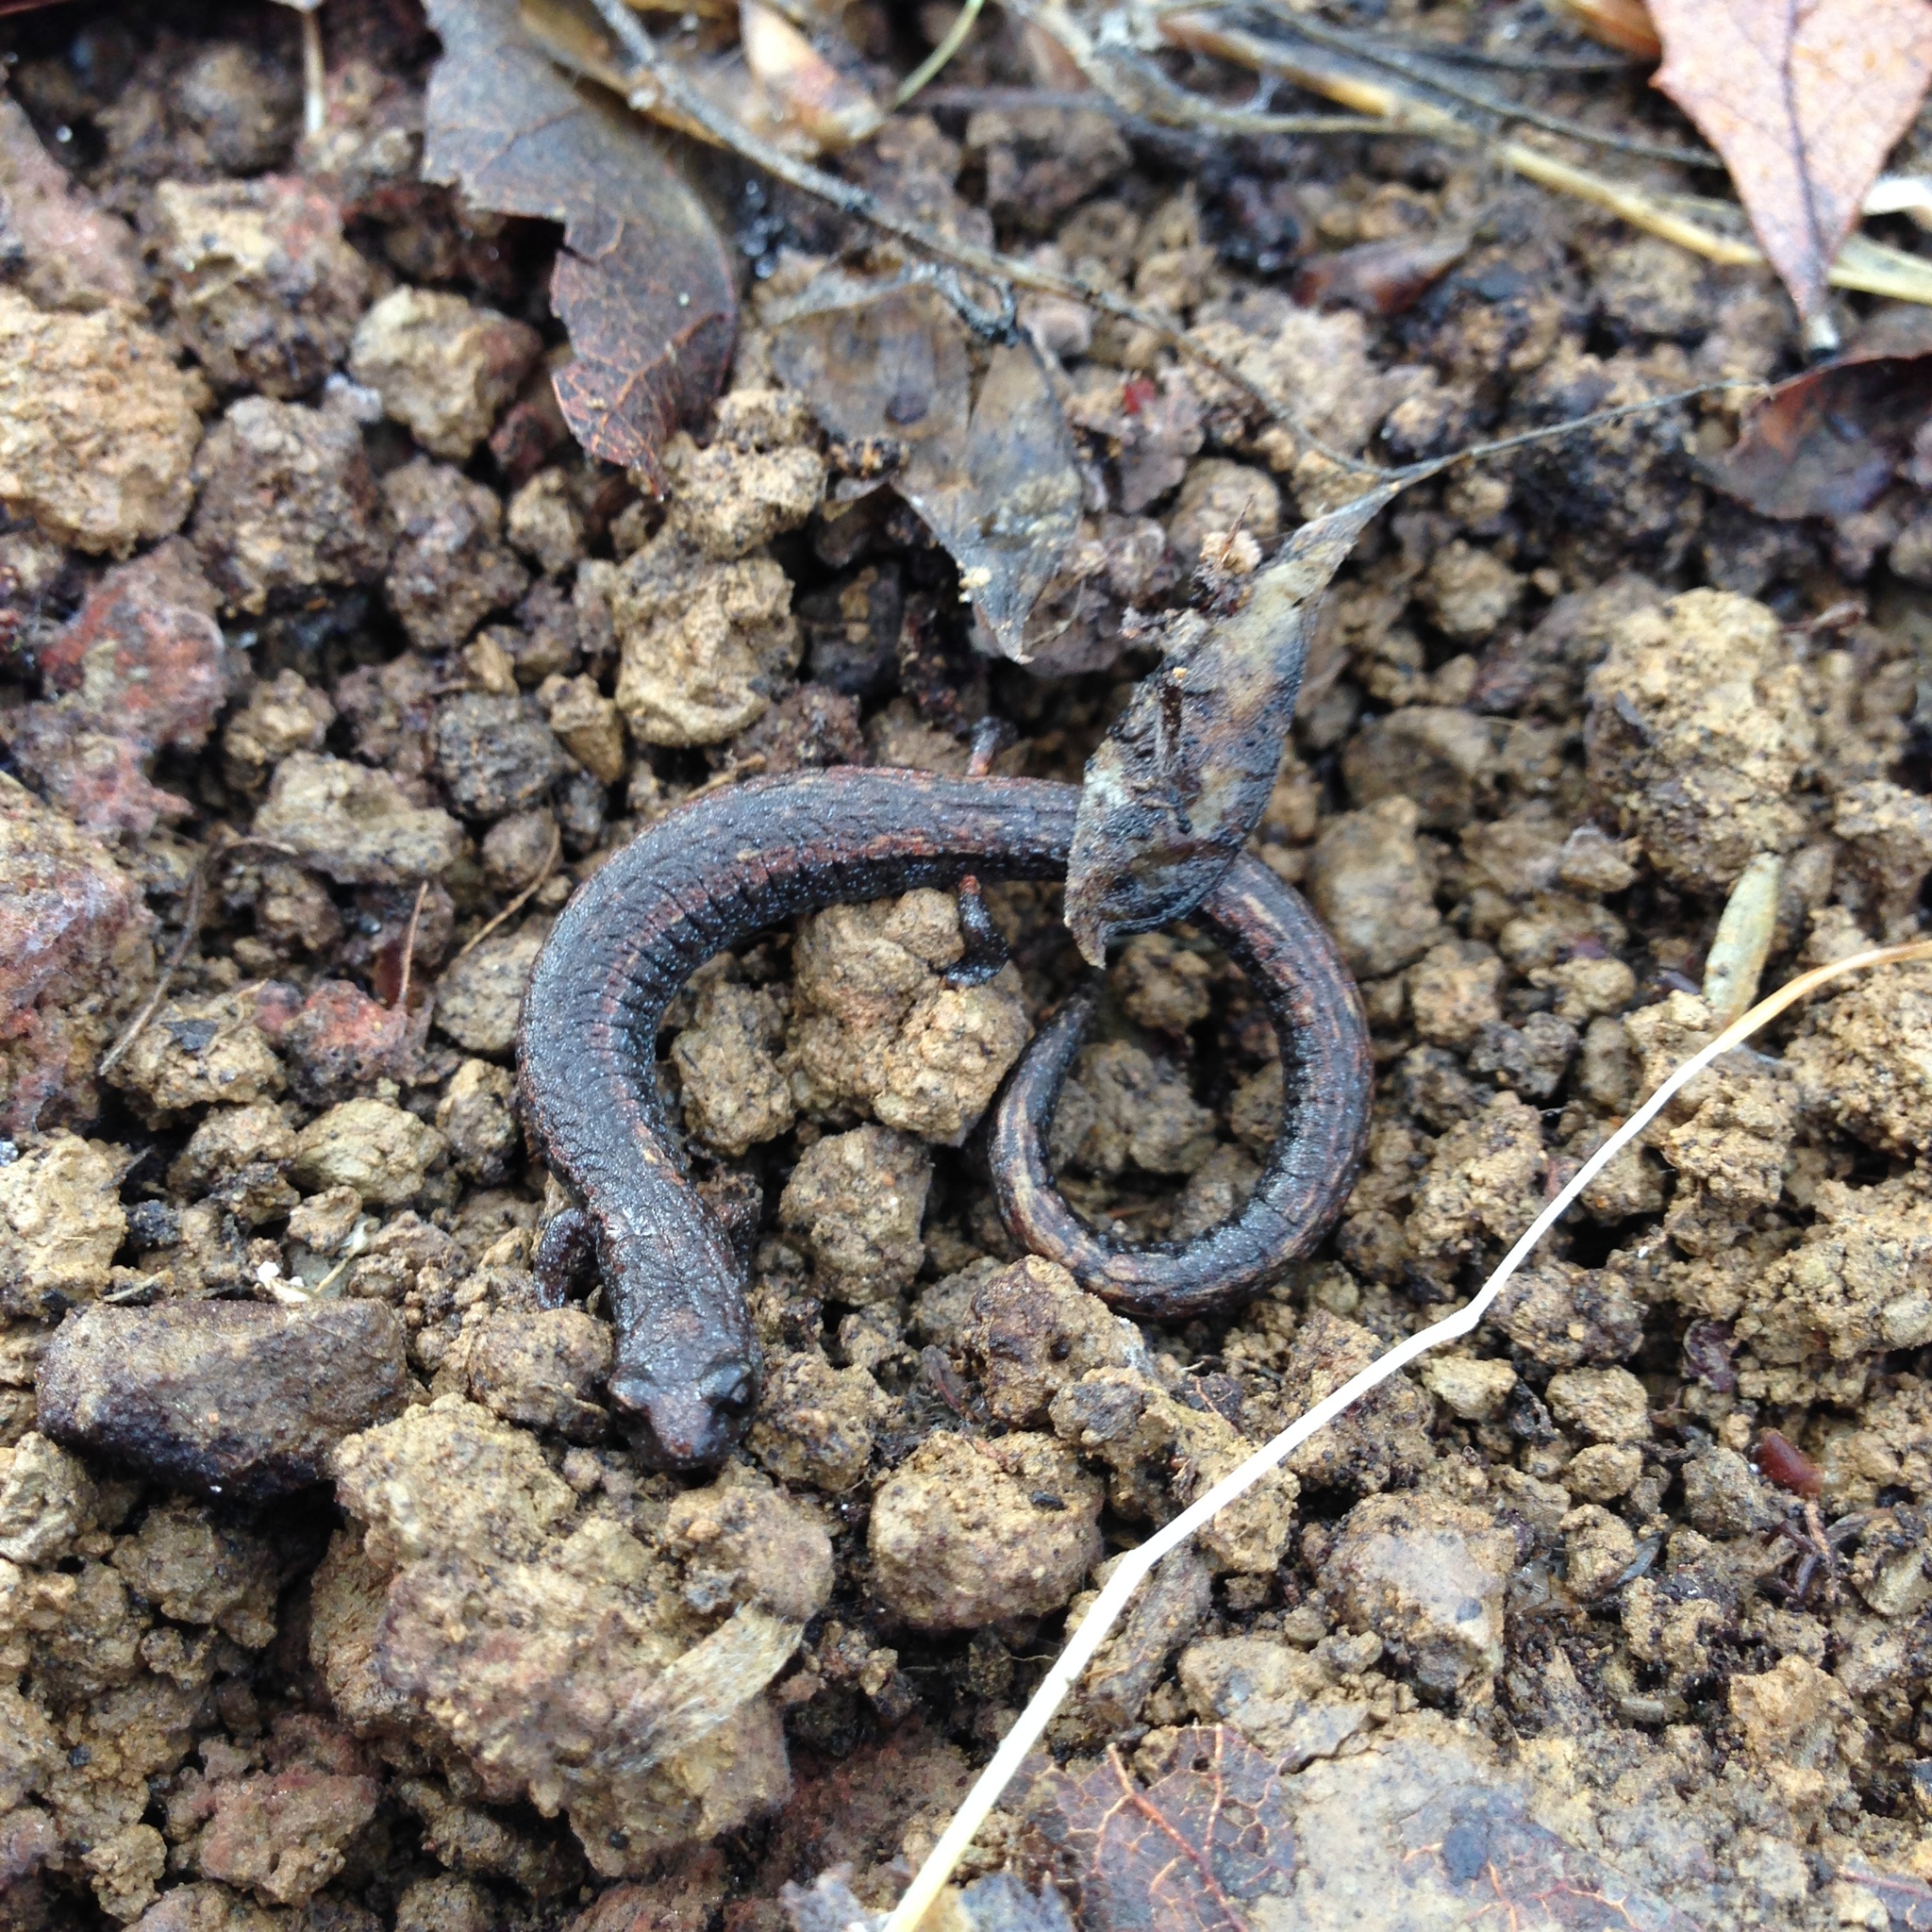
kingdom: Animalia
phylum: Chordata
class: Amphibia
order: Caudata
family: Plethodontidae
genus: Batrachoseps
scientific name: Batrachoseps attenuatus
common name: California slender salamander
